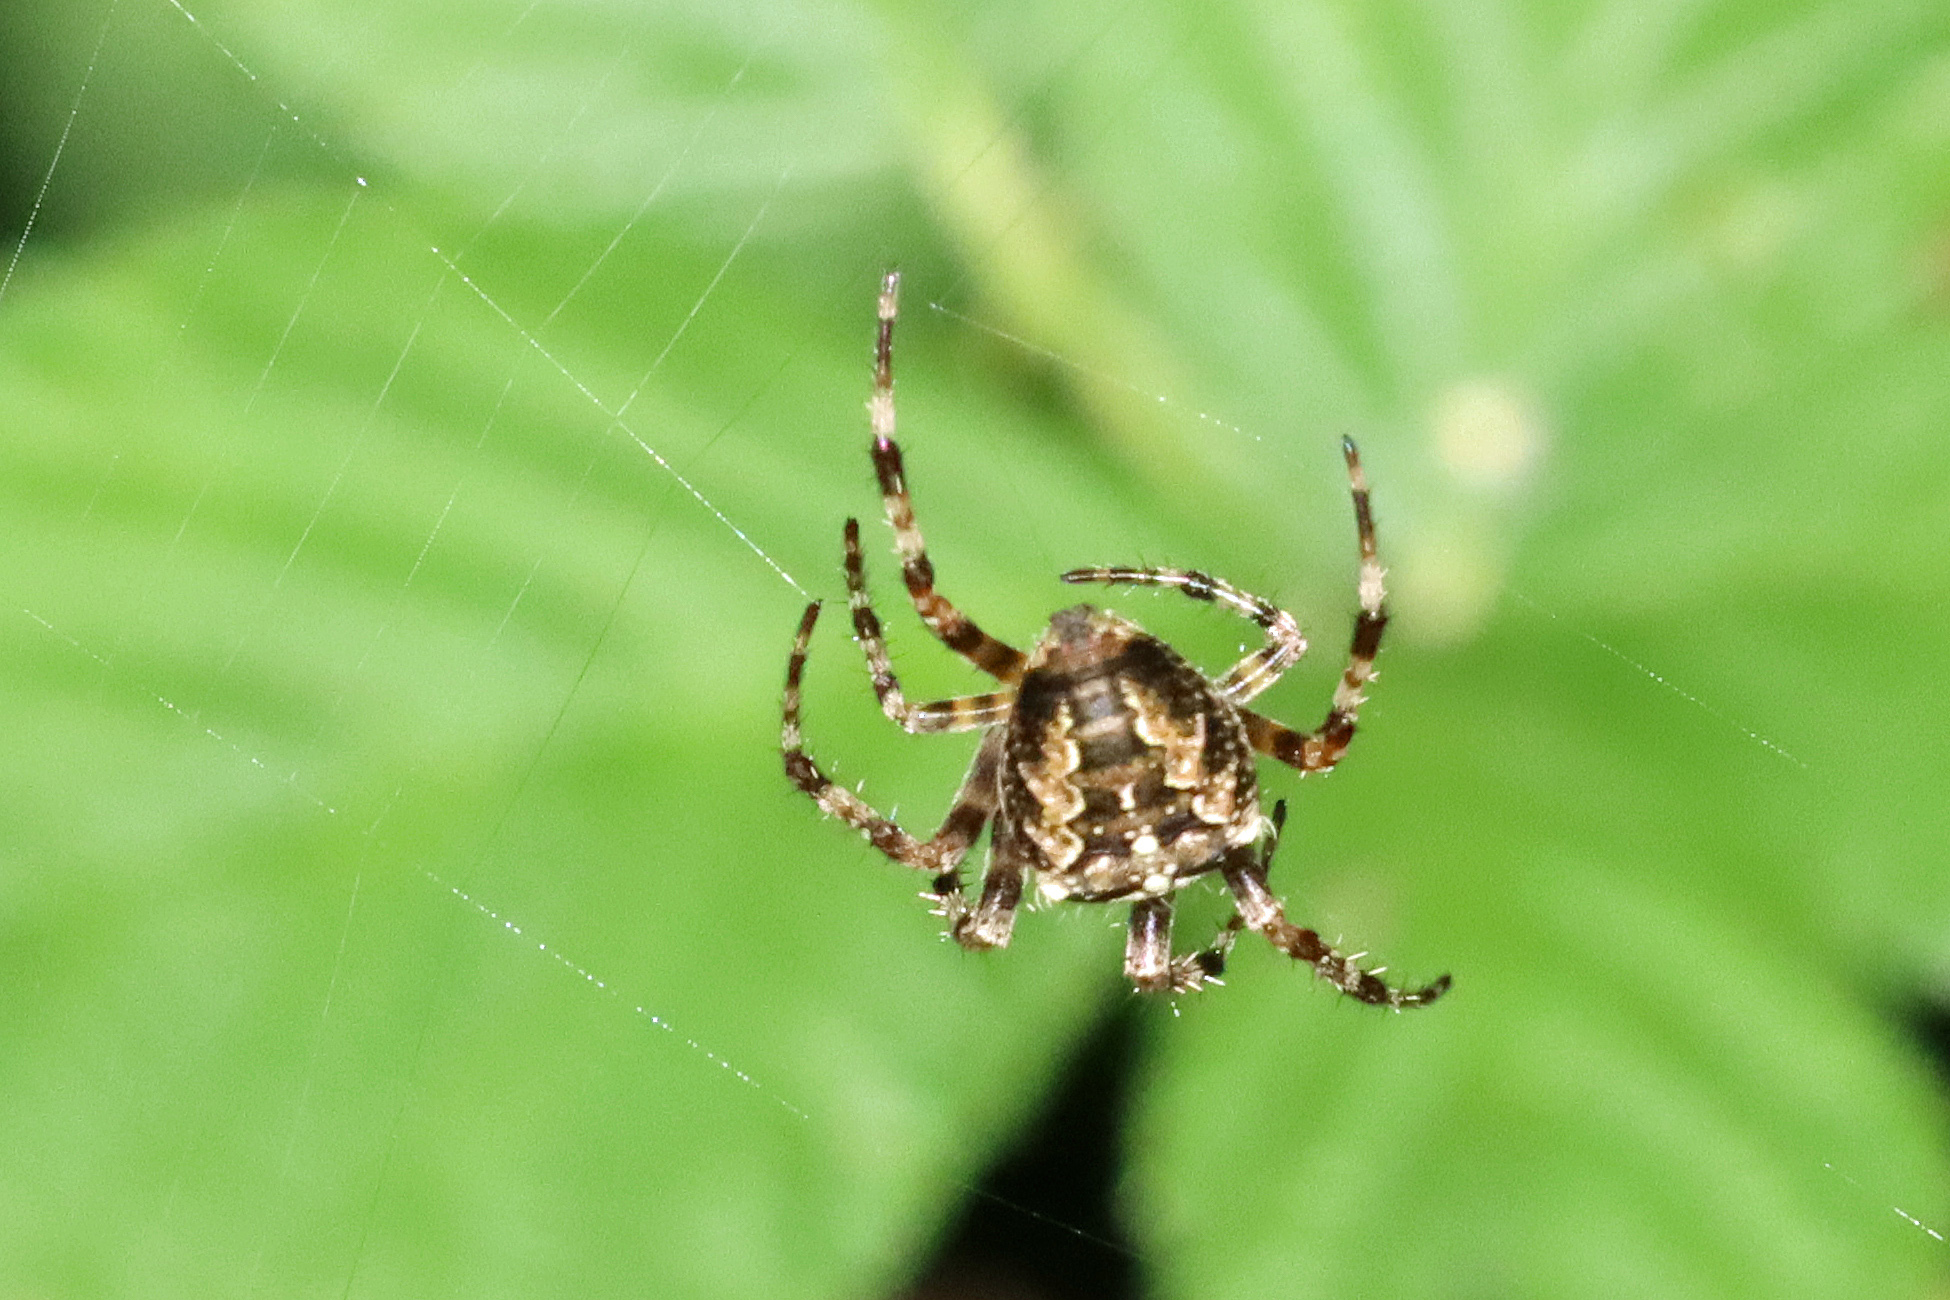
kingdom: Animalia
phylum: Arthropoda
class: Arachnida
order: Araneae
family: Araneidae
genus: Araneus
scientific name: Araneus diadematus
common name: Cross orbweaver
